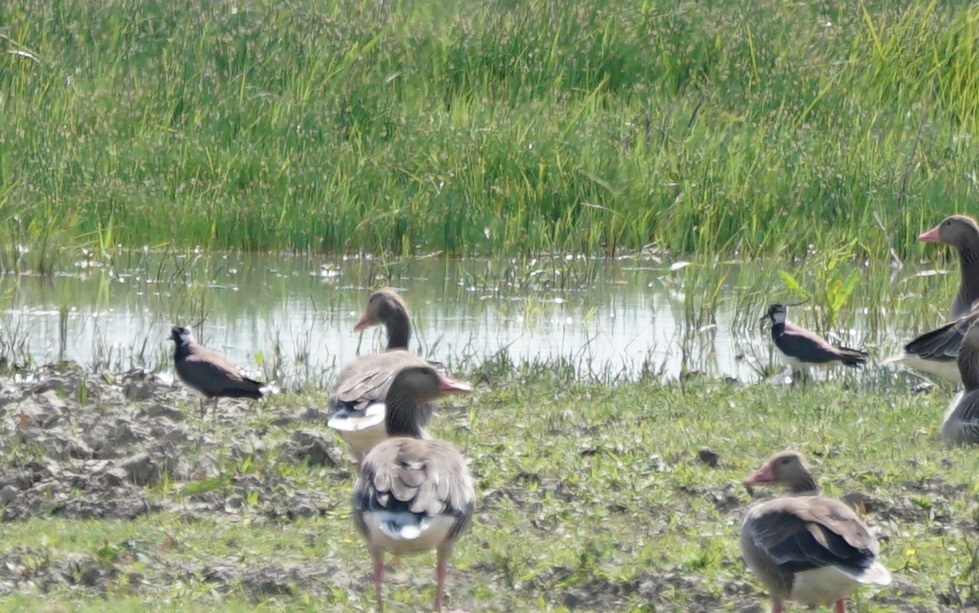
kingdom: Animalia
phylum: Chordata
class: Aves
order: Charadriiformes
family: Charadriidae
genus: Vanellus
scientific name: Vanellus vanellus
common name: Northern lapwing
